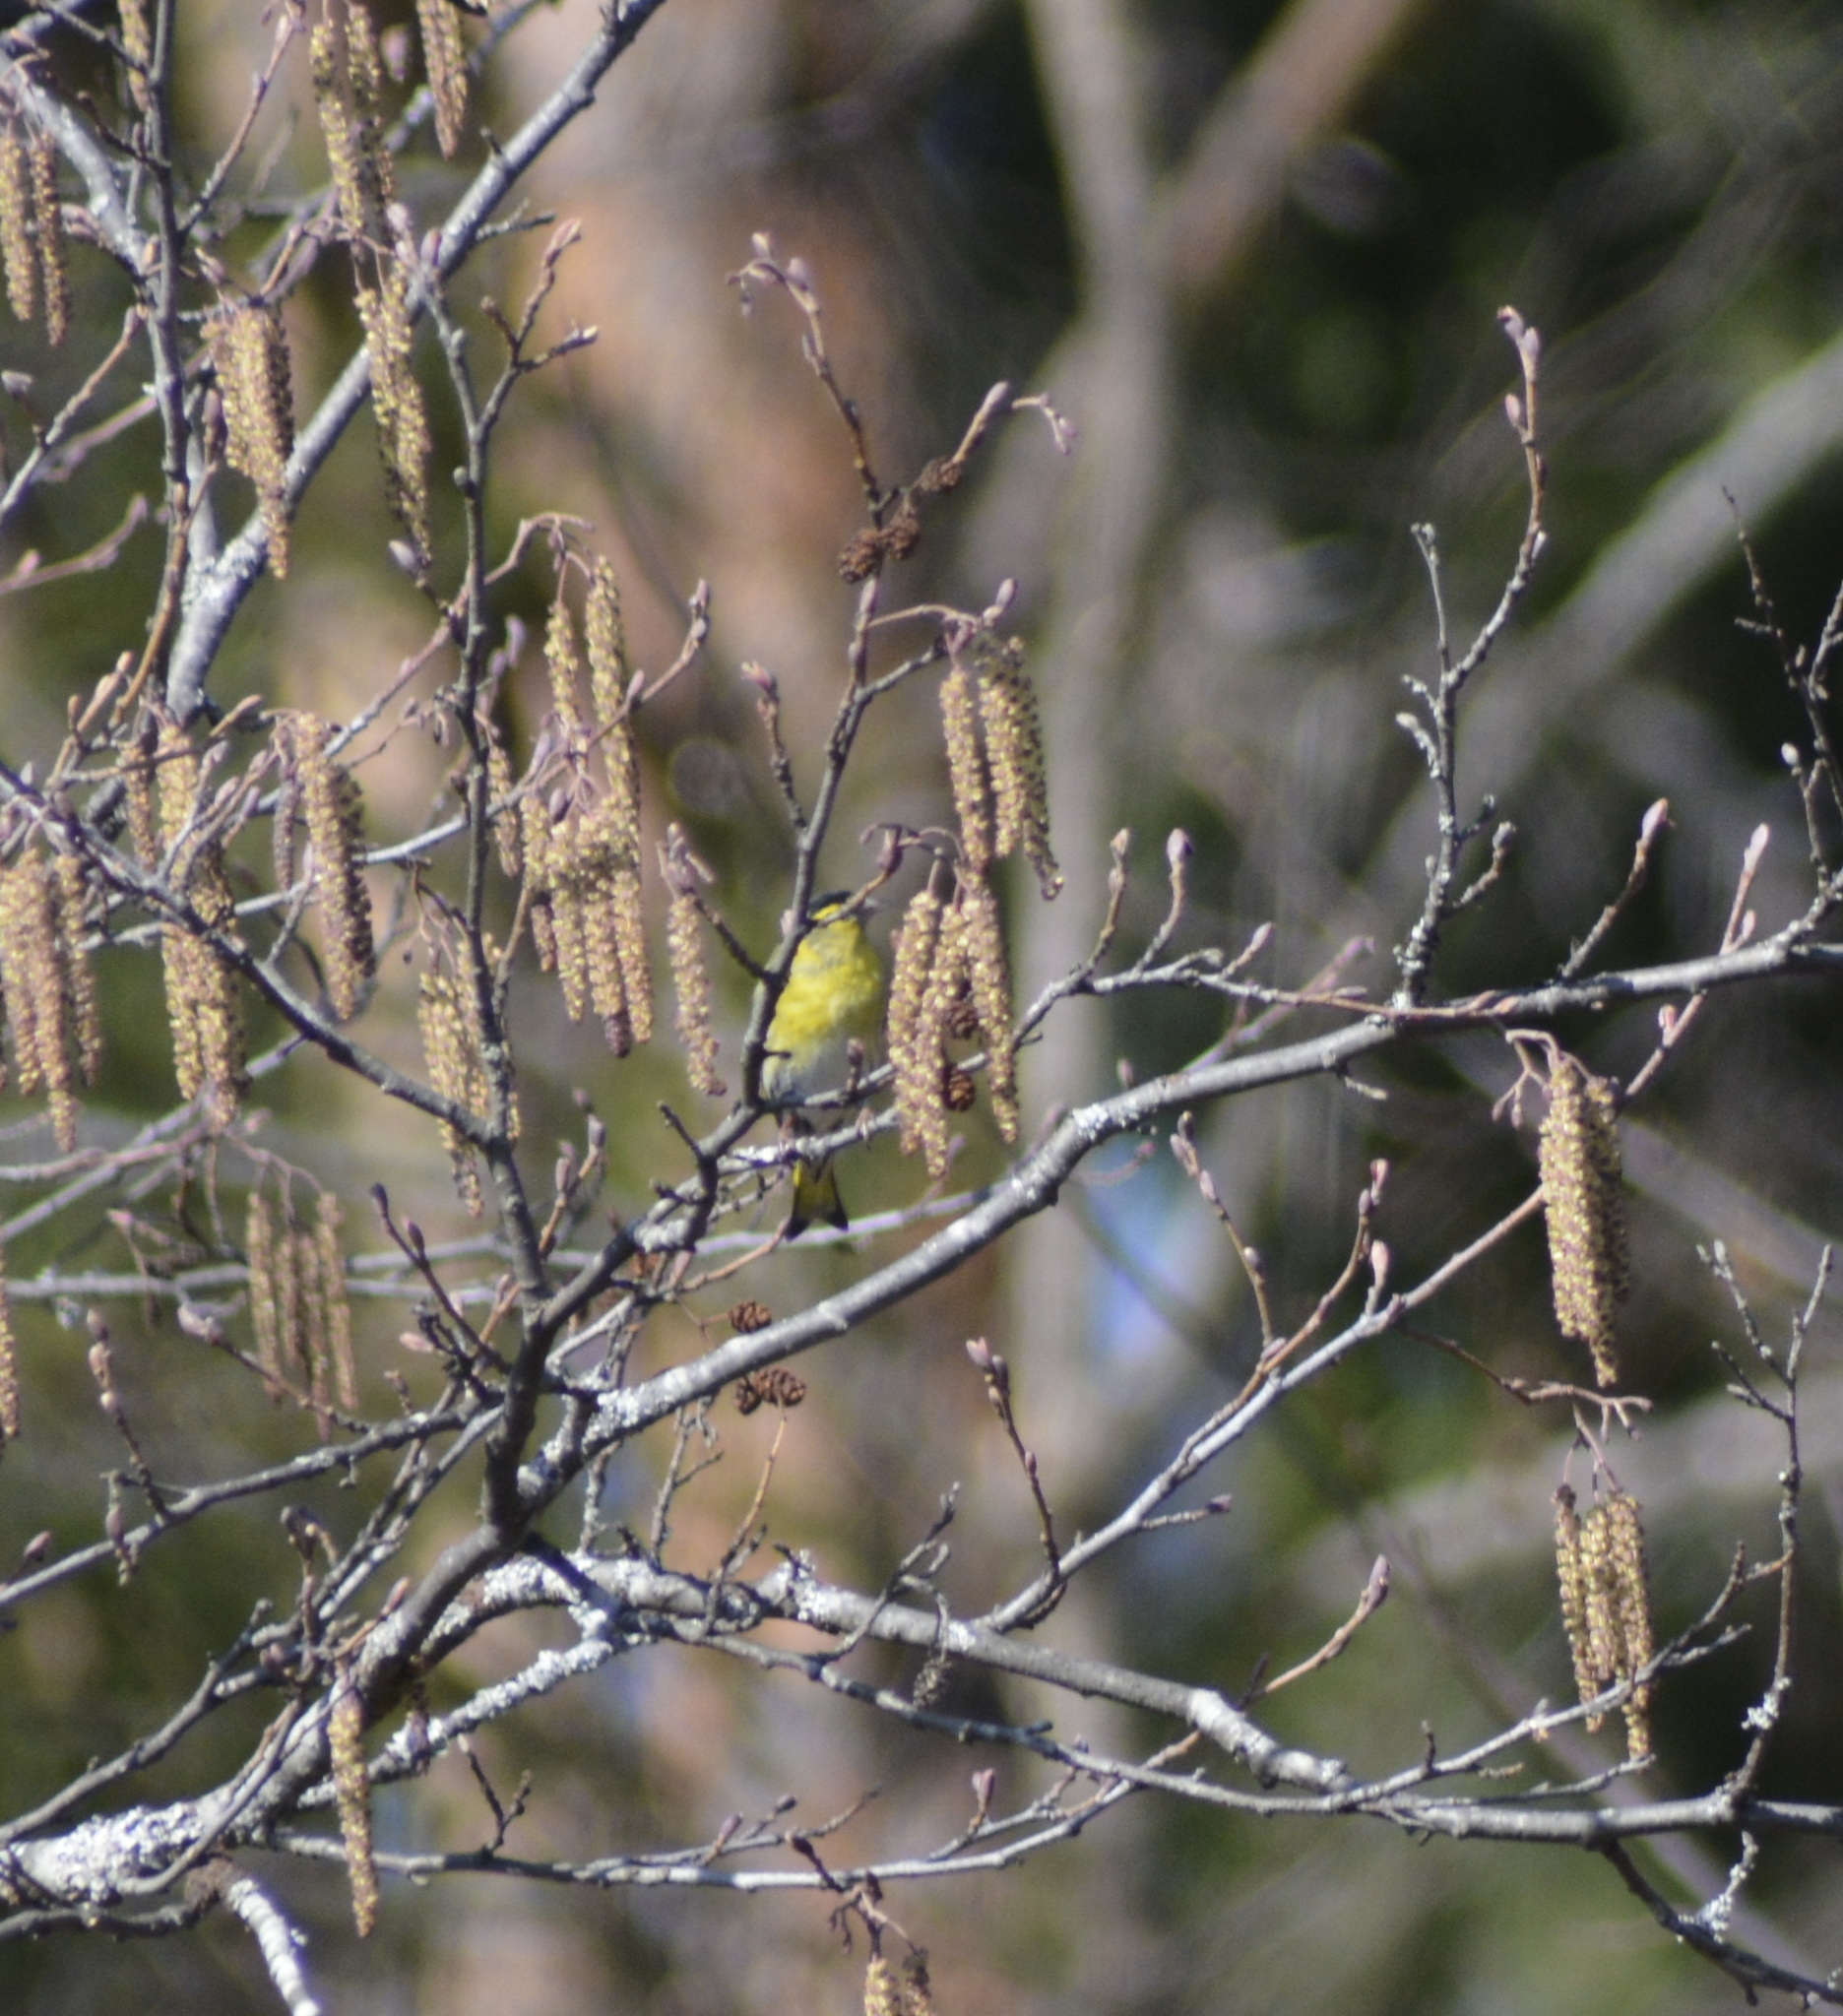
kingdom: Animalia
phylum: Chordata
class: Aves
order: Passeriformes
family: Fringillidae
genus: Spinus
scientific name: Spinus spinus
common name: Eurasian siskin
